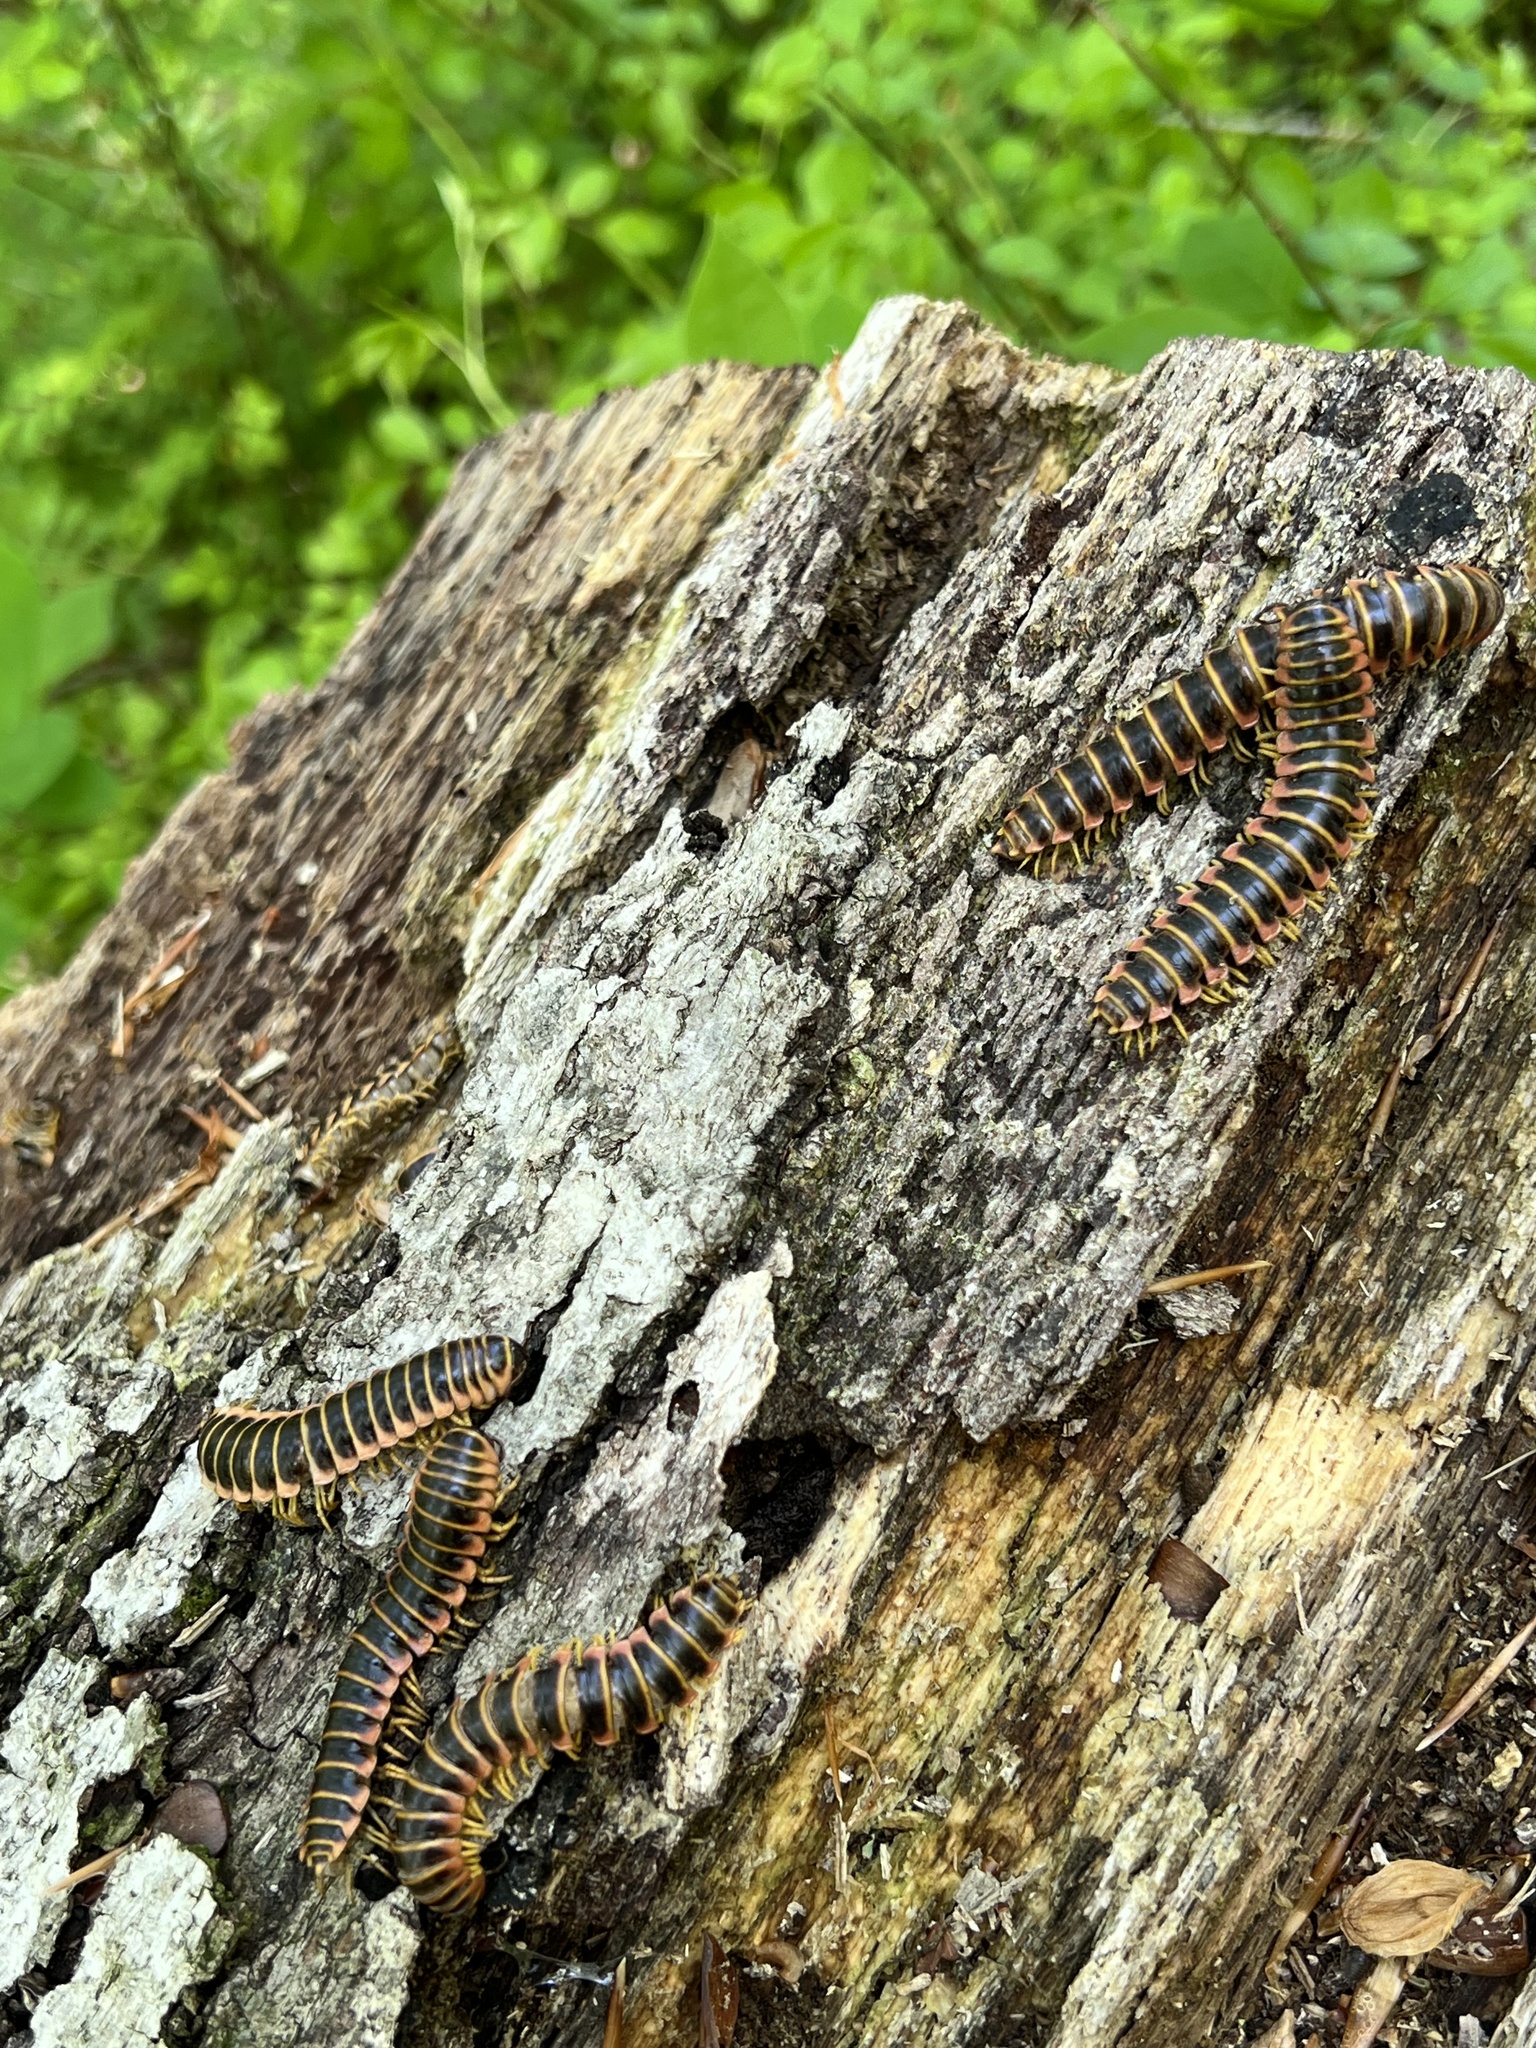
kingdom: Fungi
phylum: Entomophthoromycota
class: Entomophthoromycetes
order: Entomophthorales
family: Entomophthoraceae
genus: Arthrophaga
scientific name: Arthrophaga myriapodina
